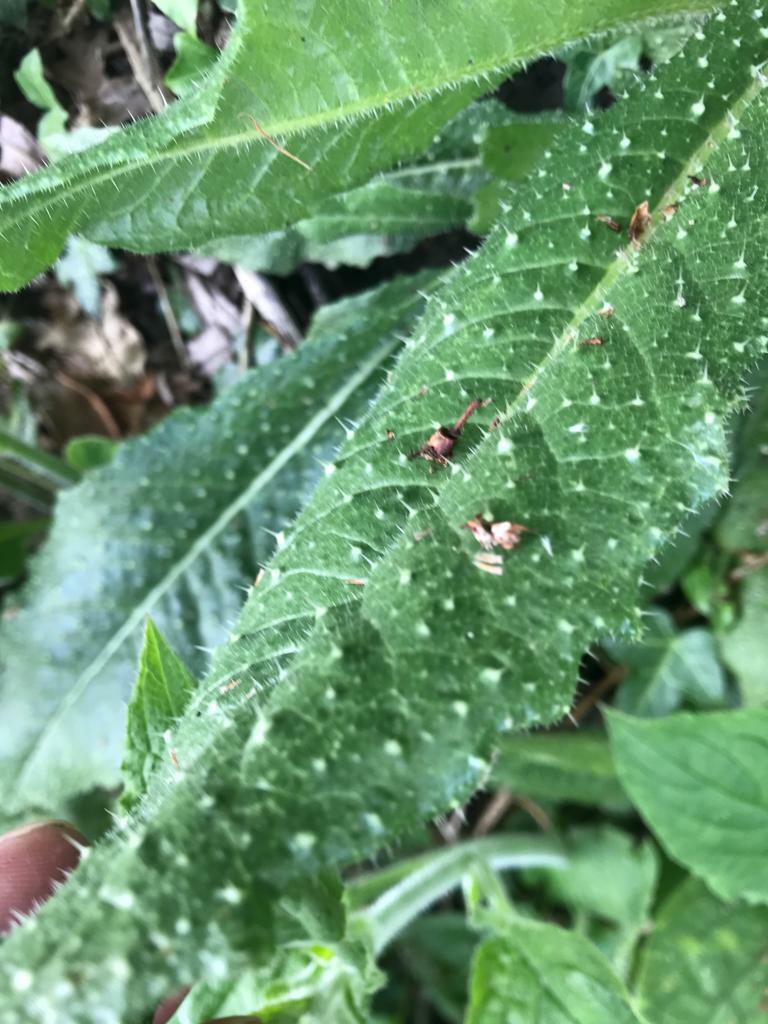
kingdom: Plantae
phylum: Tracheophyta
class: Magnoliopsida
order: Asterales
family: Asteraceae
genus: Helminthotheca
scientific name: Helminthotheca echioides
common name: Ox-tongue
